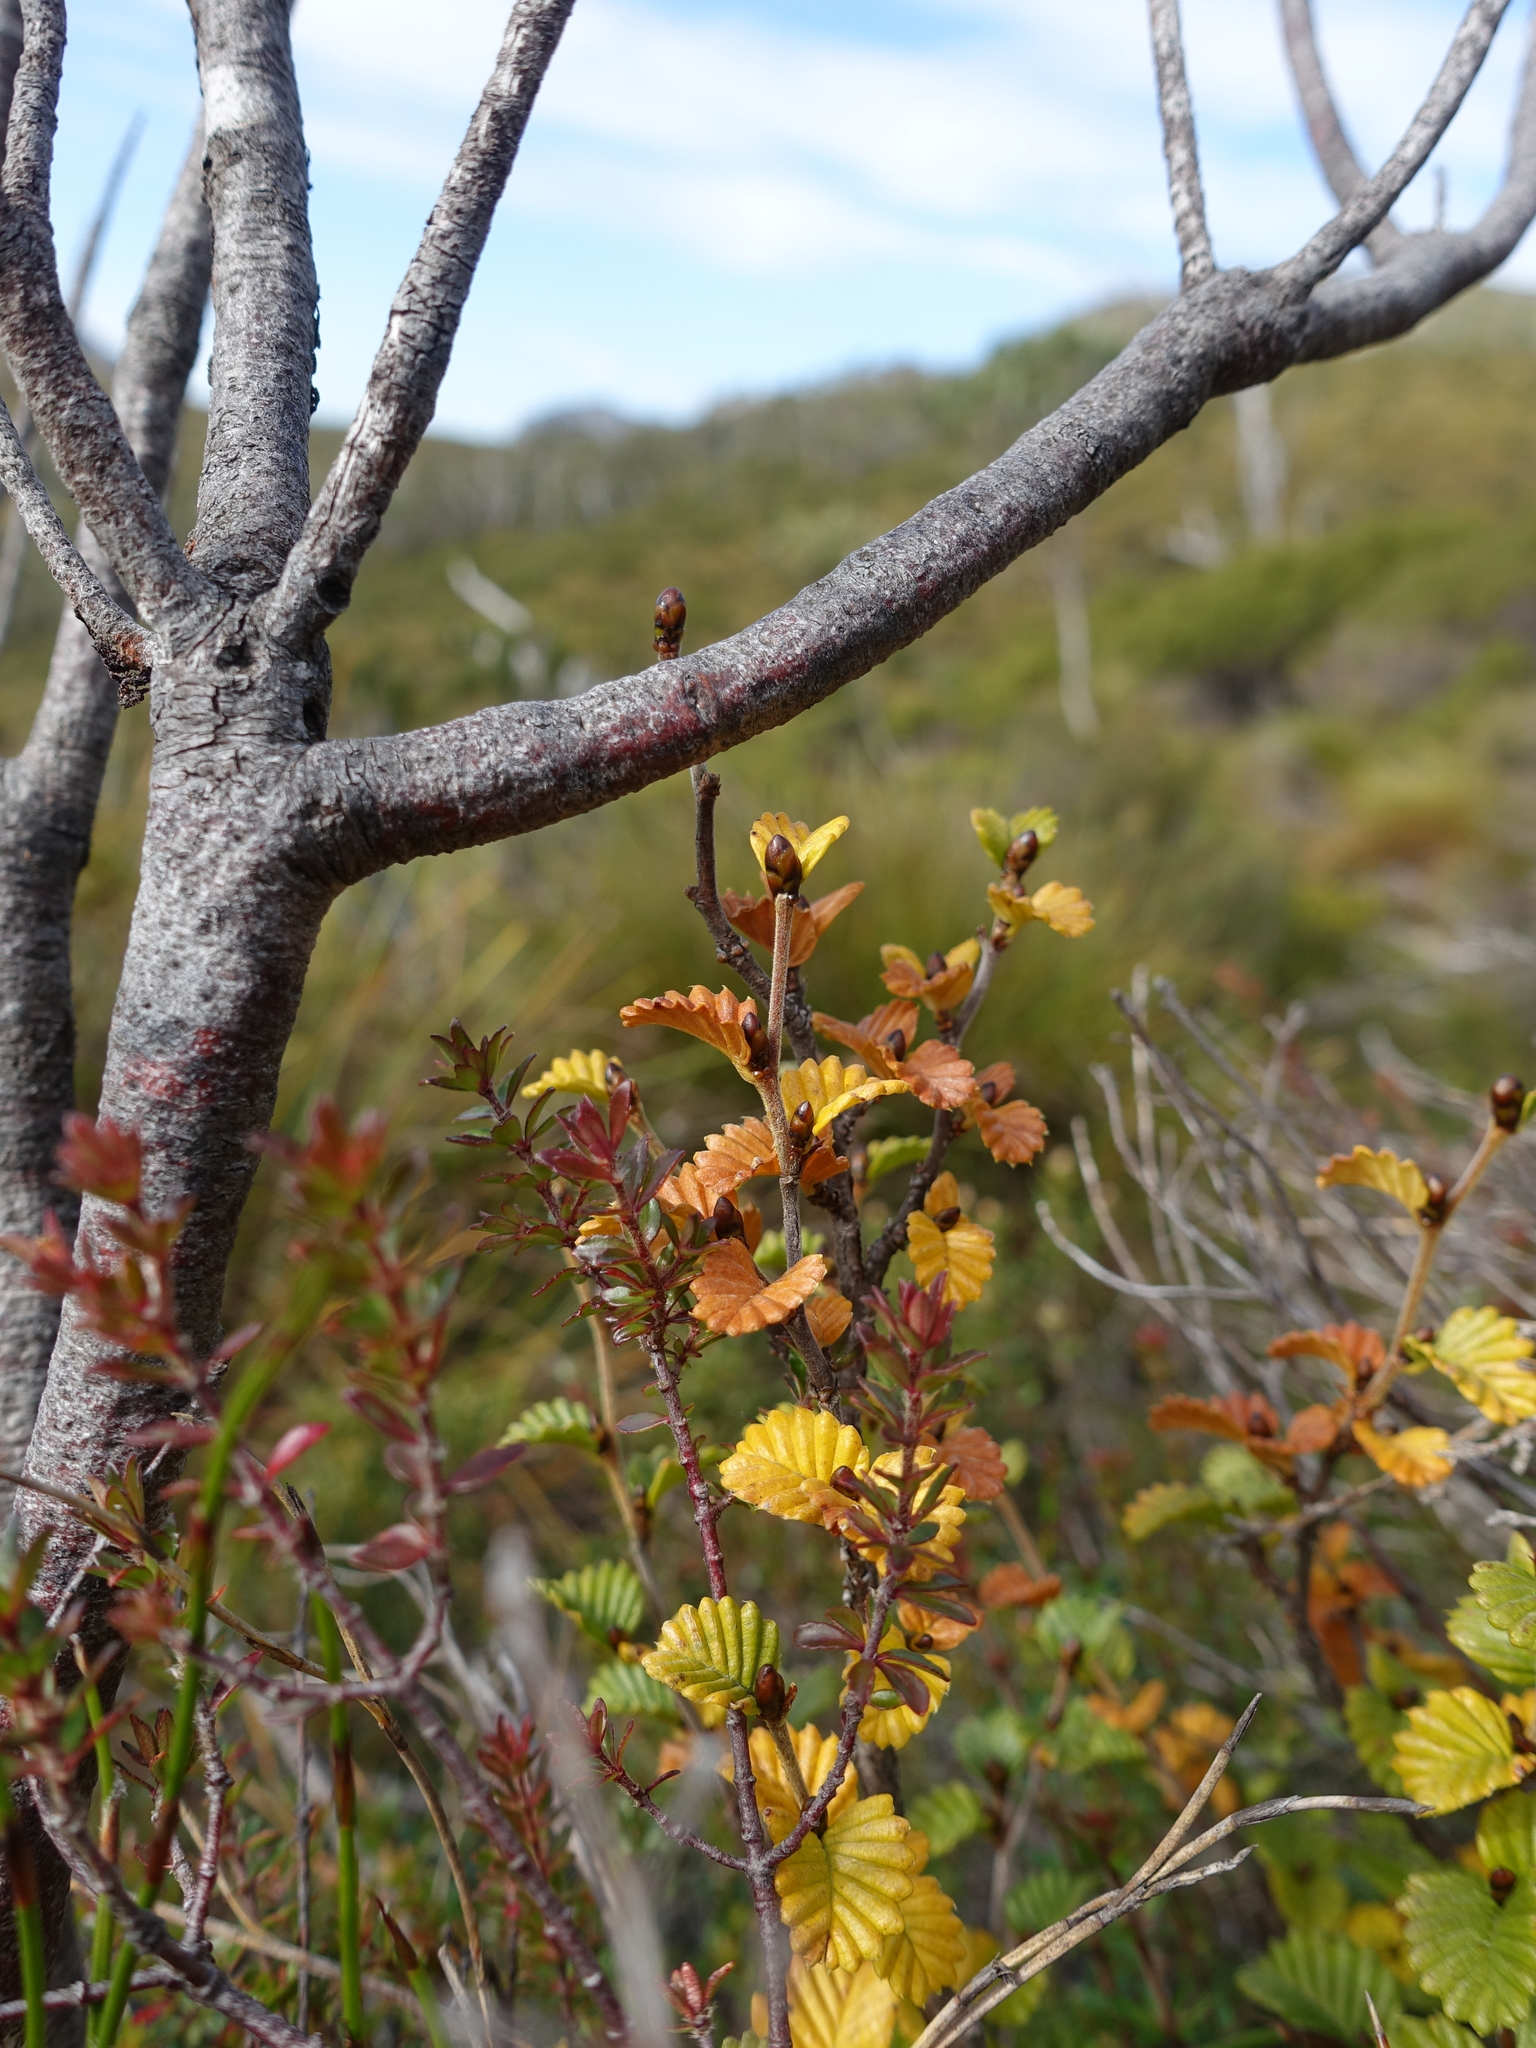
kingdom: Plantae
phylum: Tracheophyta
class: Magnoliopsida
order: Fagales
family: Nothofagaceae
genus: Nothofagus
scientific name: Nothofagus gunnii
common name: Tanglefoot
